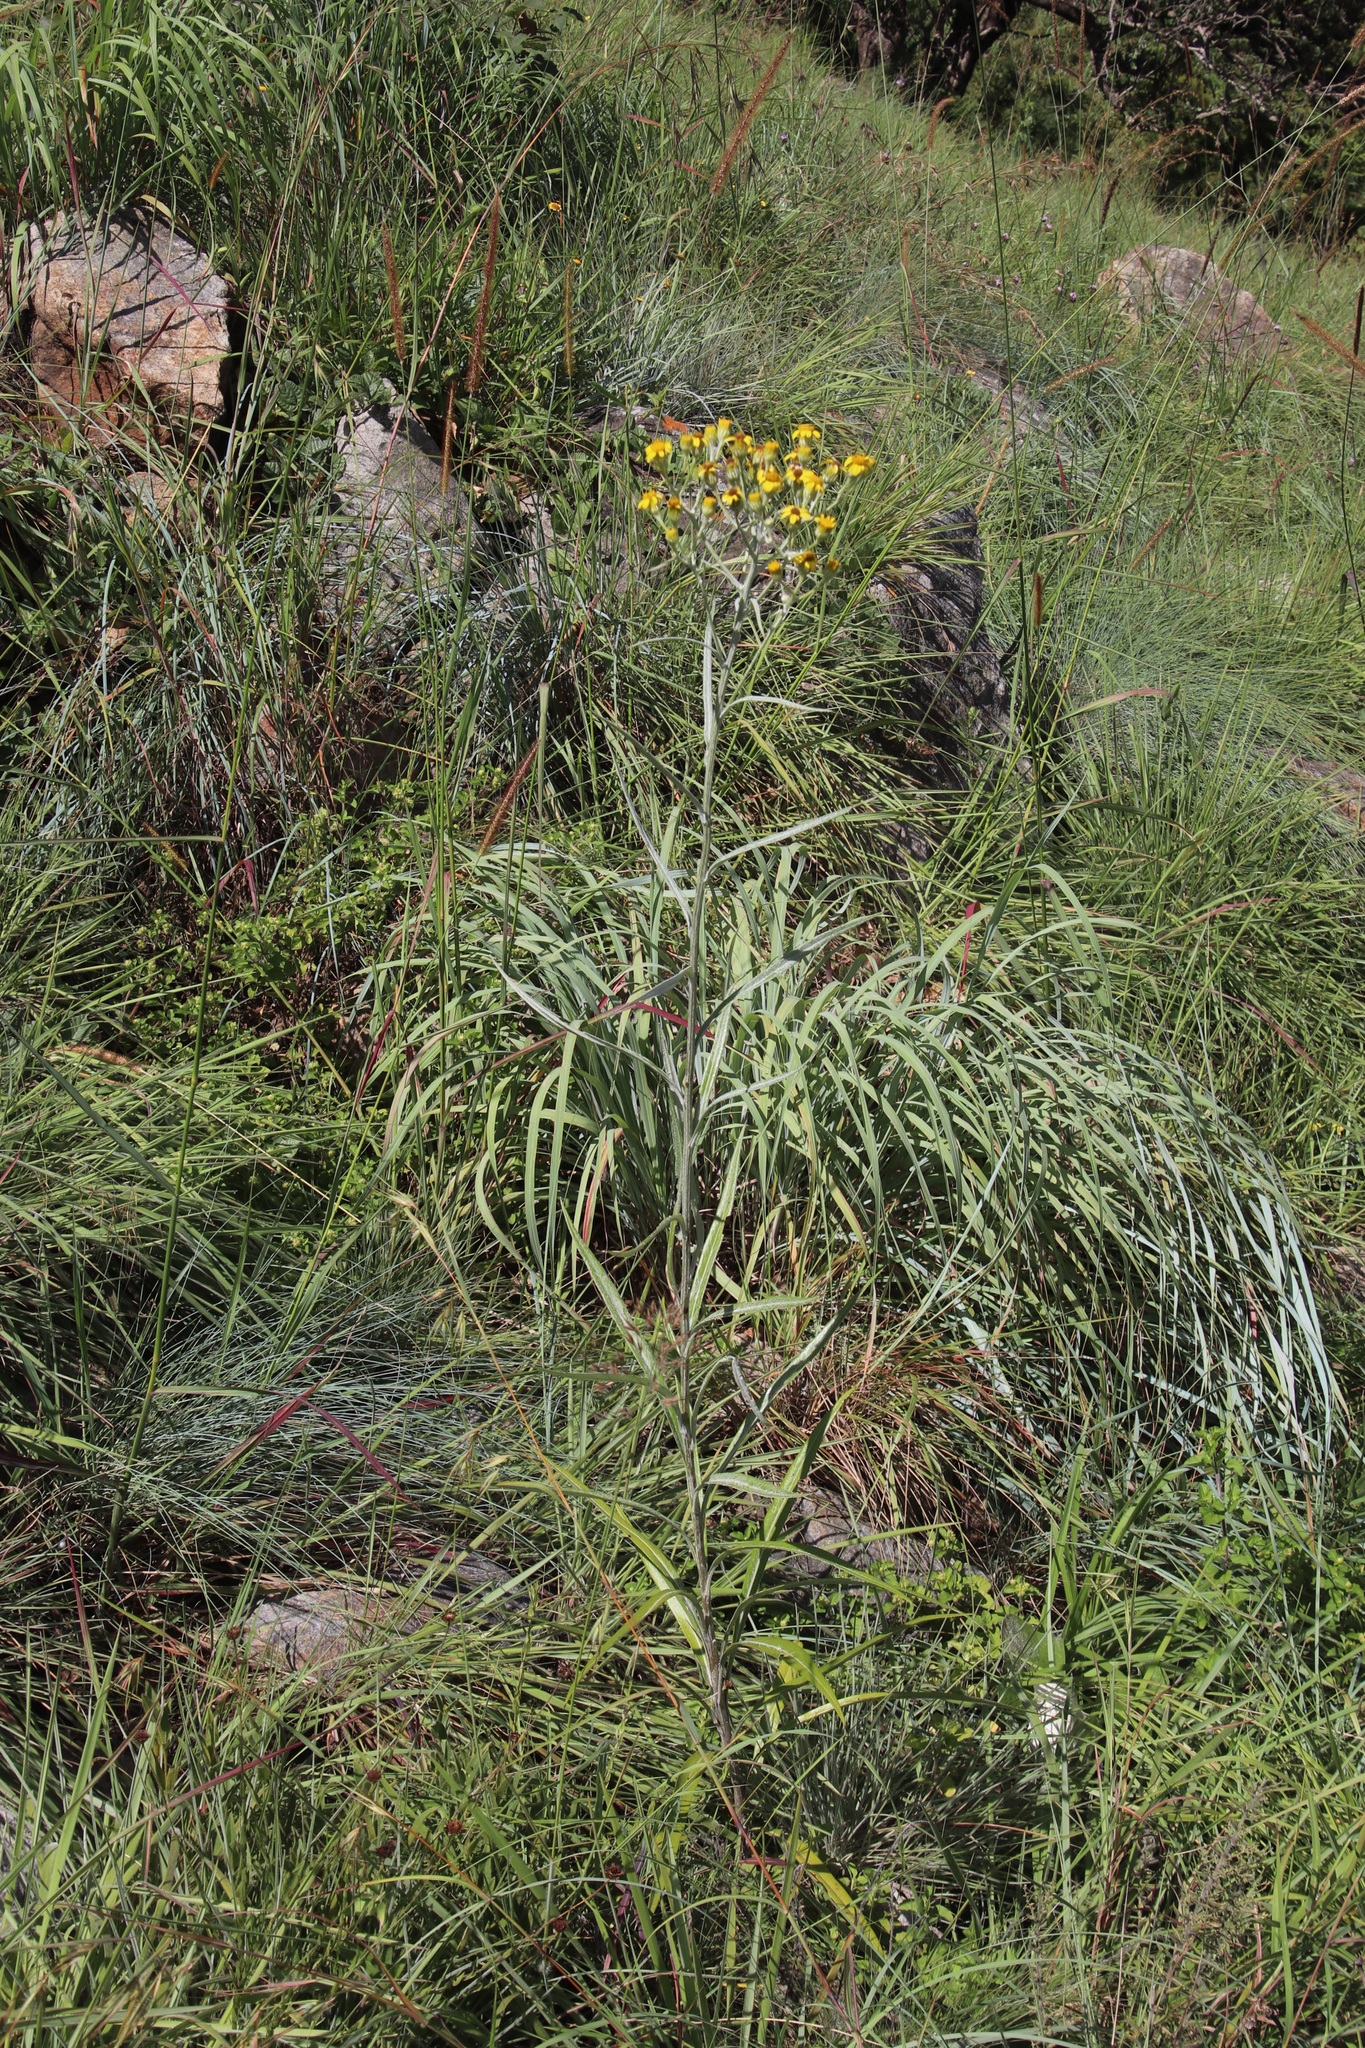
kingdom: Plantae
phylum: Tracheophyta
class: Magnoliopsida
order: Asterales
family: Asteraceae
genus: Senecio
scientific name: Senecio bupleuroides
